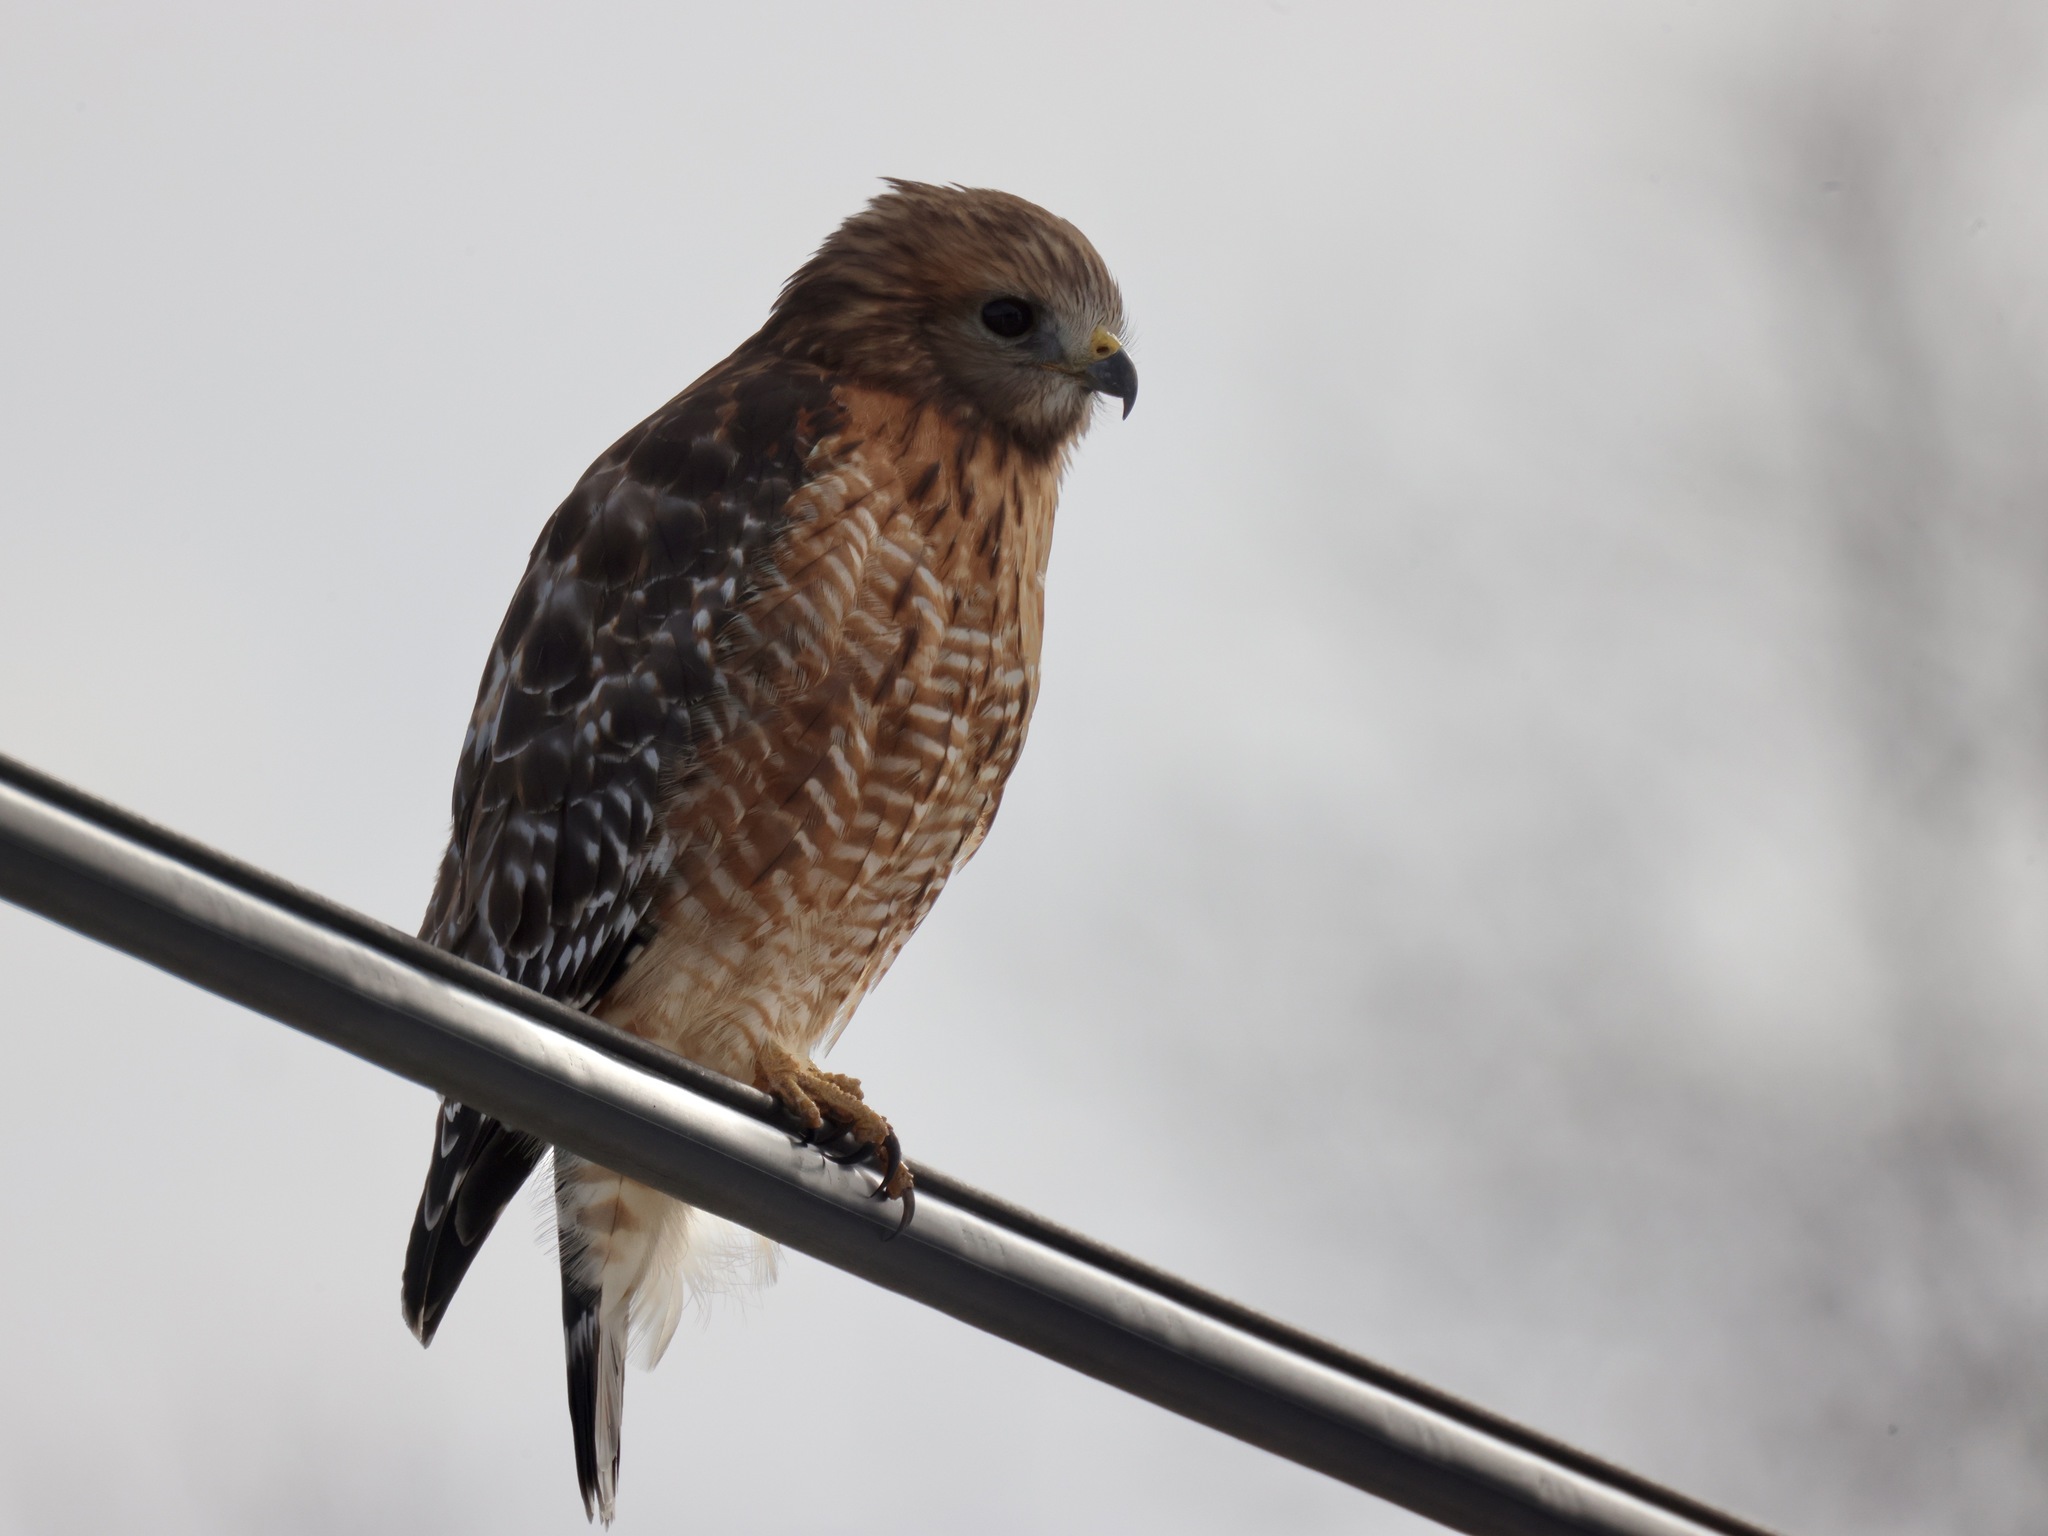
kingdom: Animalia
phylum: Chordata
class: Aves
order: Accipitriformes
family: Accipitridae
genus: Buteo
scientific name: Buteo lineatus
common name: Red-shouldered hawk
